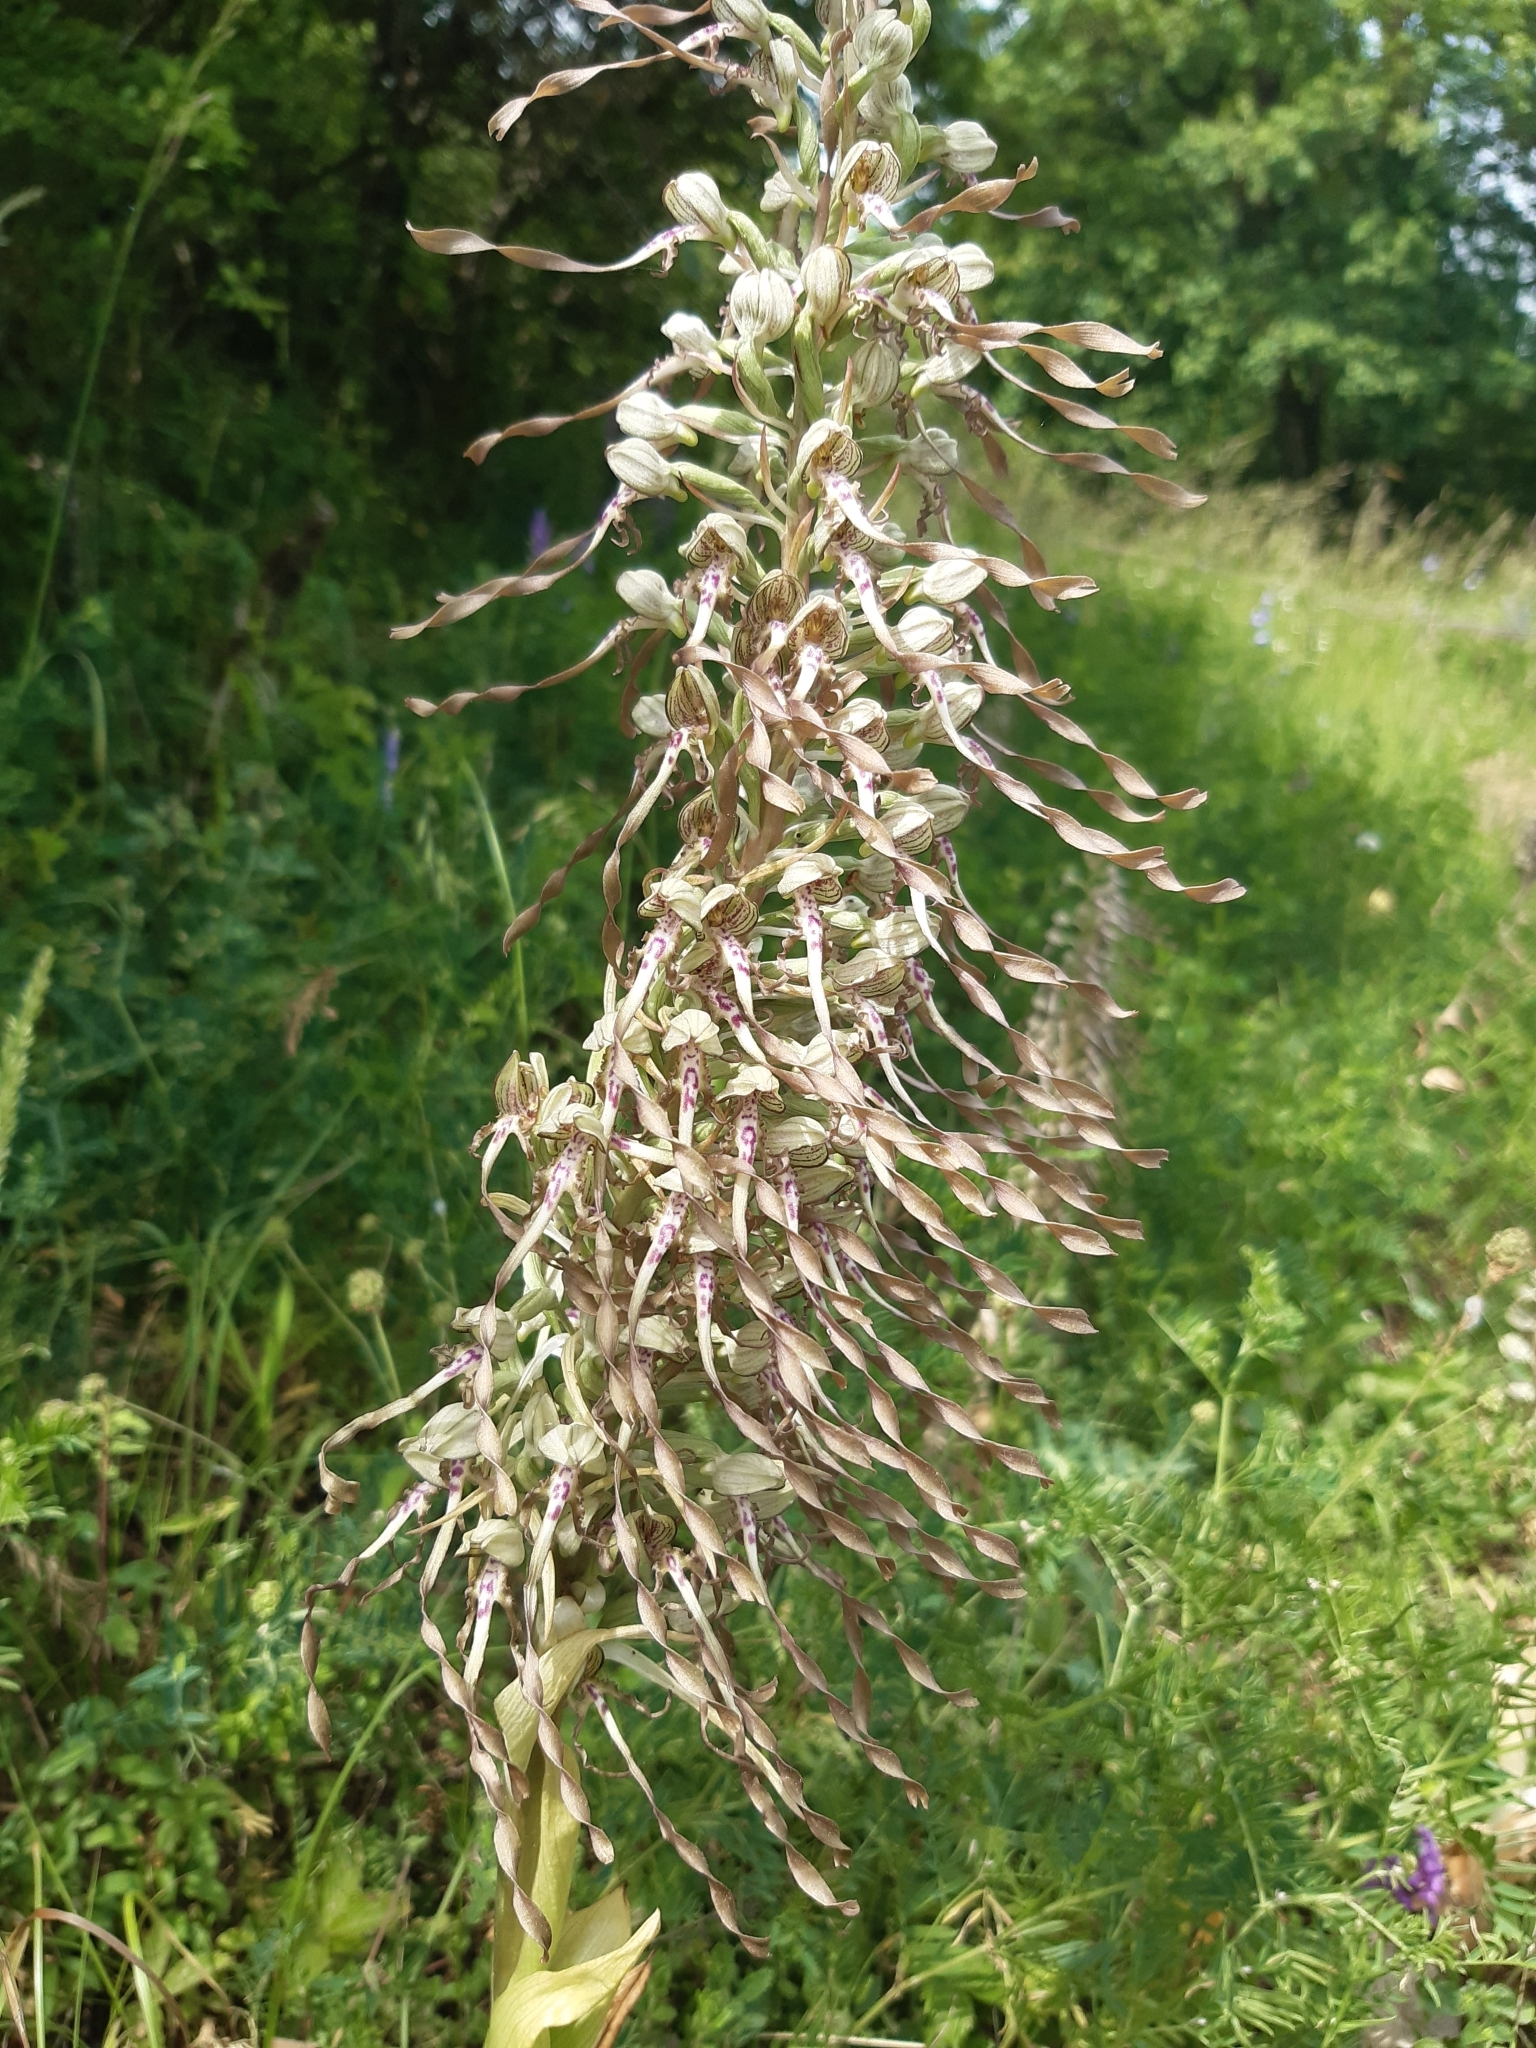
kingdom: Plantae
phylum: Tracheophyta
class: Liliopsida
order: Asparagales
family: Orchidaceae
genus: Himantoglossum
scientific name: Himantoglossum hircinum
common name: Lizard orchid
